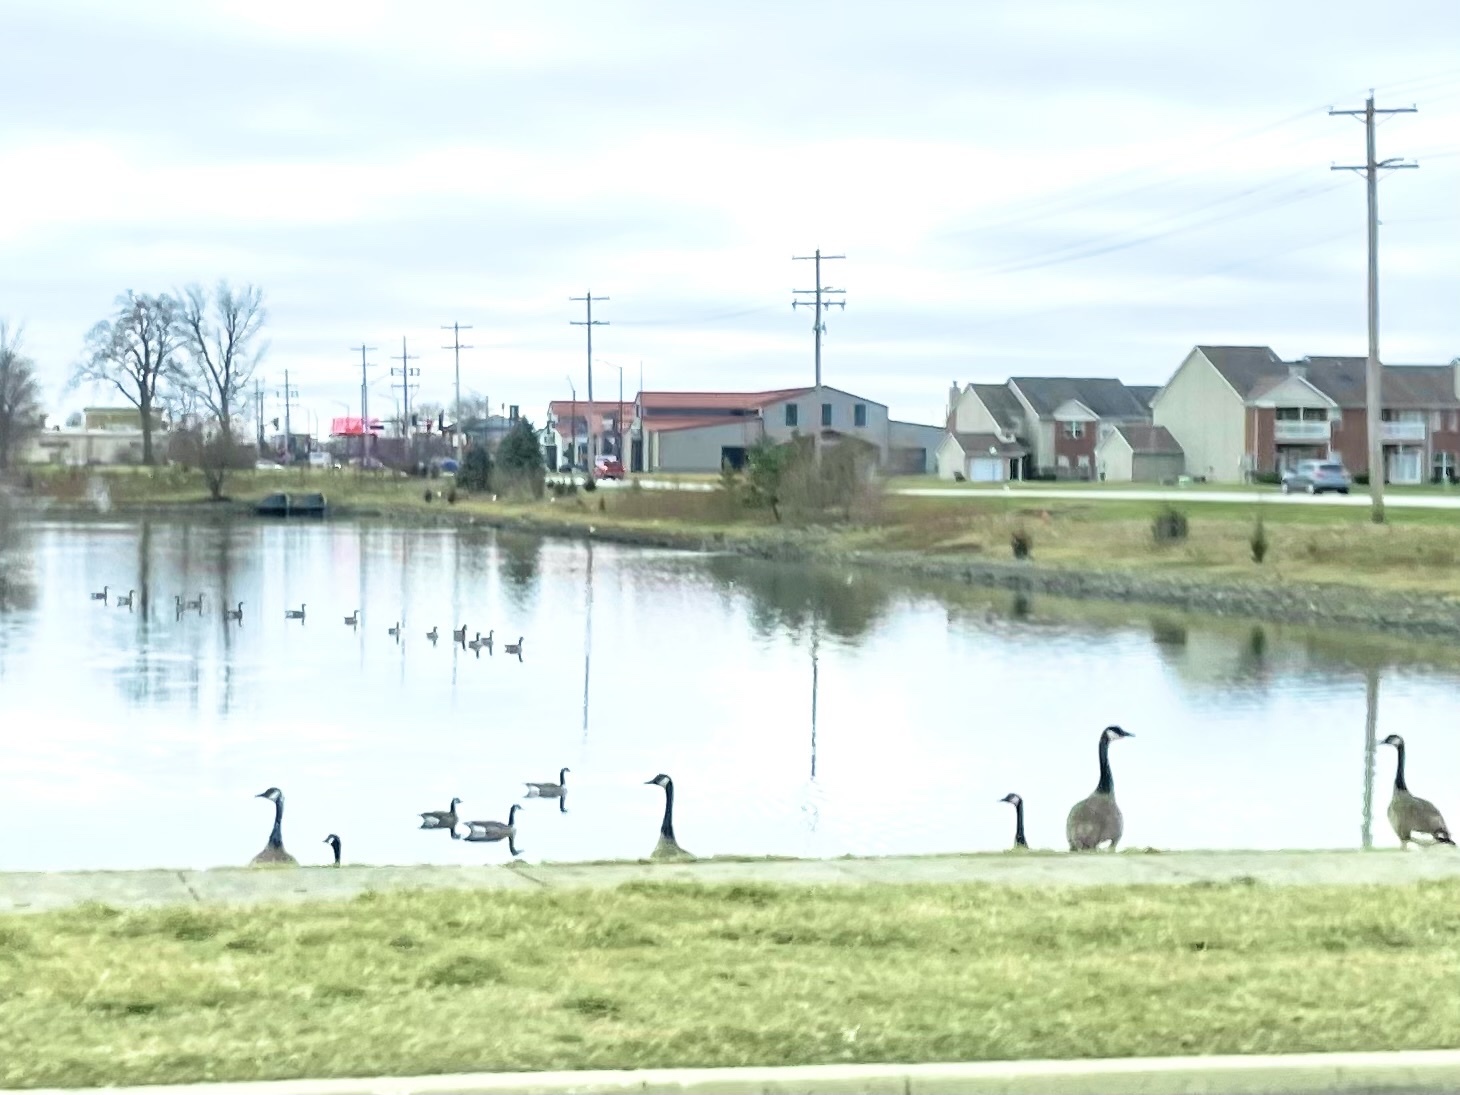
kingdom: Animalia
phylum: Chordata
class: Aves
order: Anseriformes
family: Anatidae
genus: Branta
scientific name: Branta canadensis
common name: Canada goose
